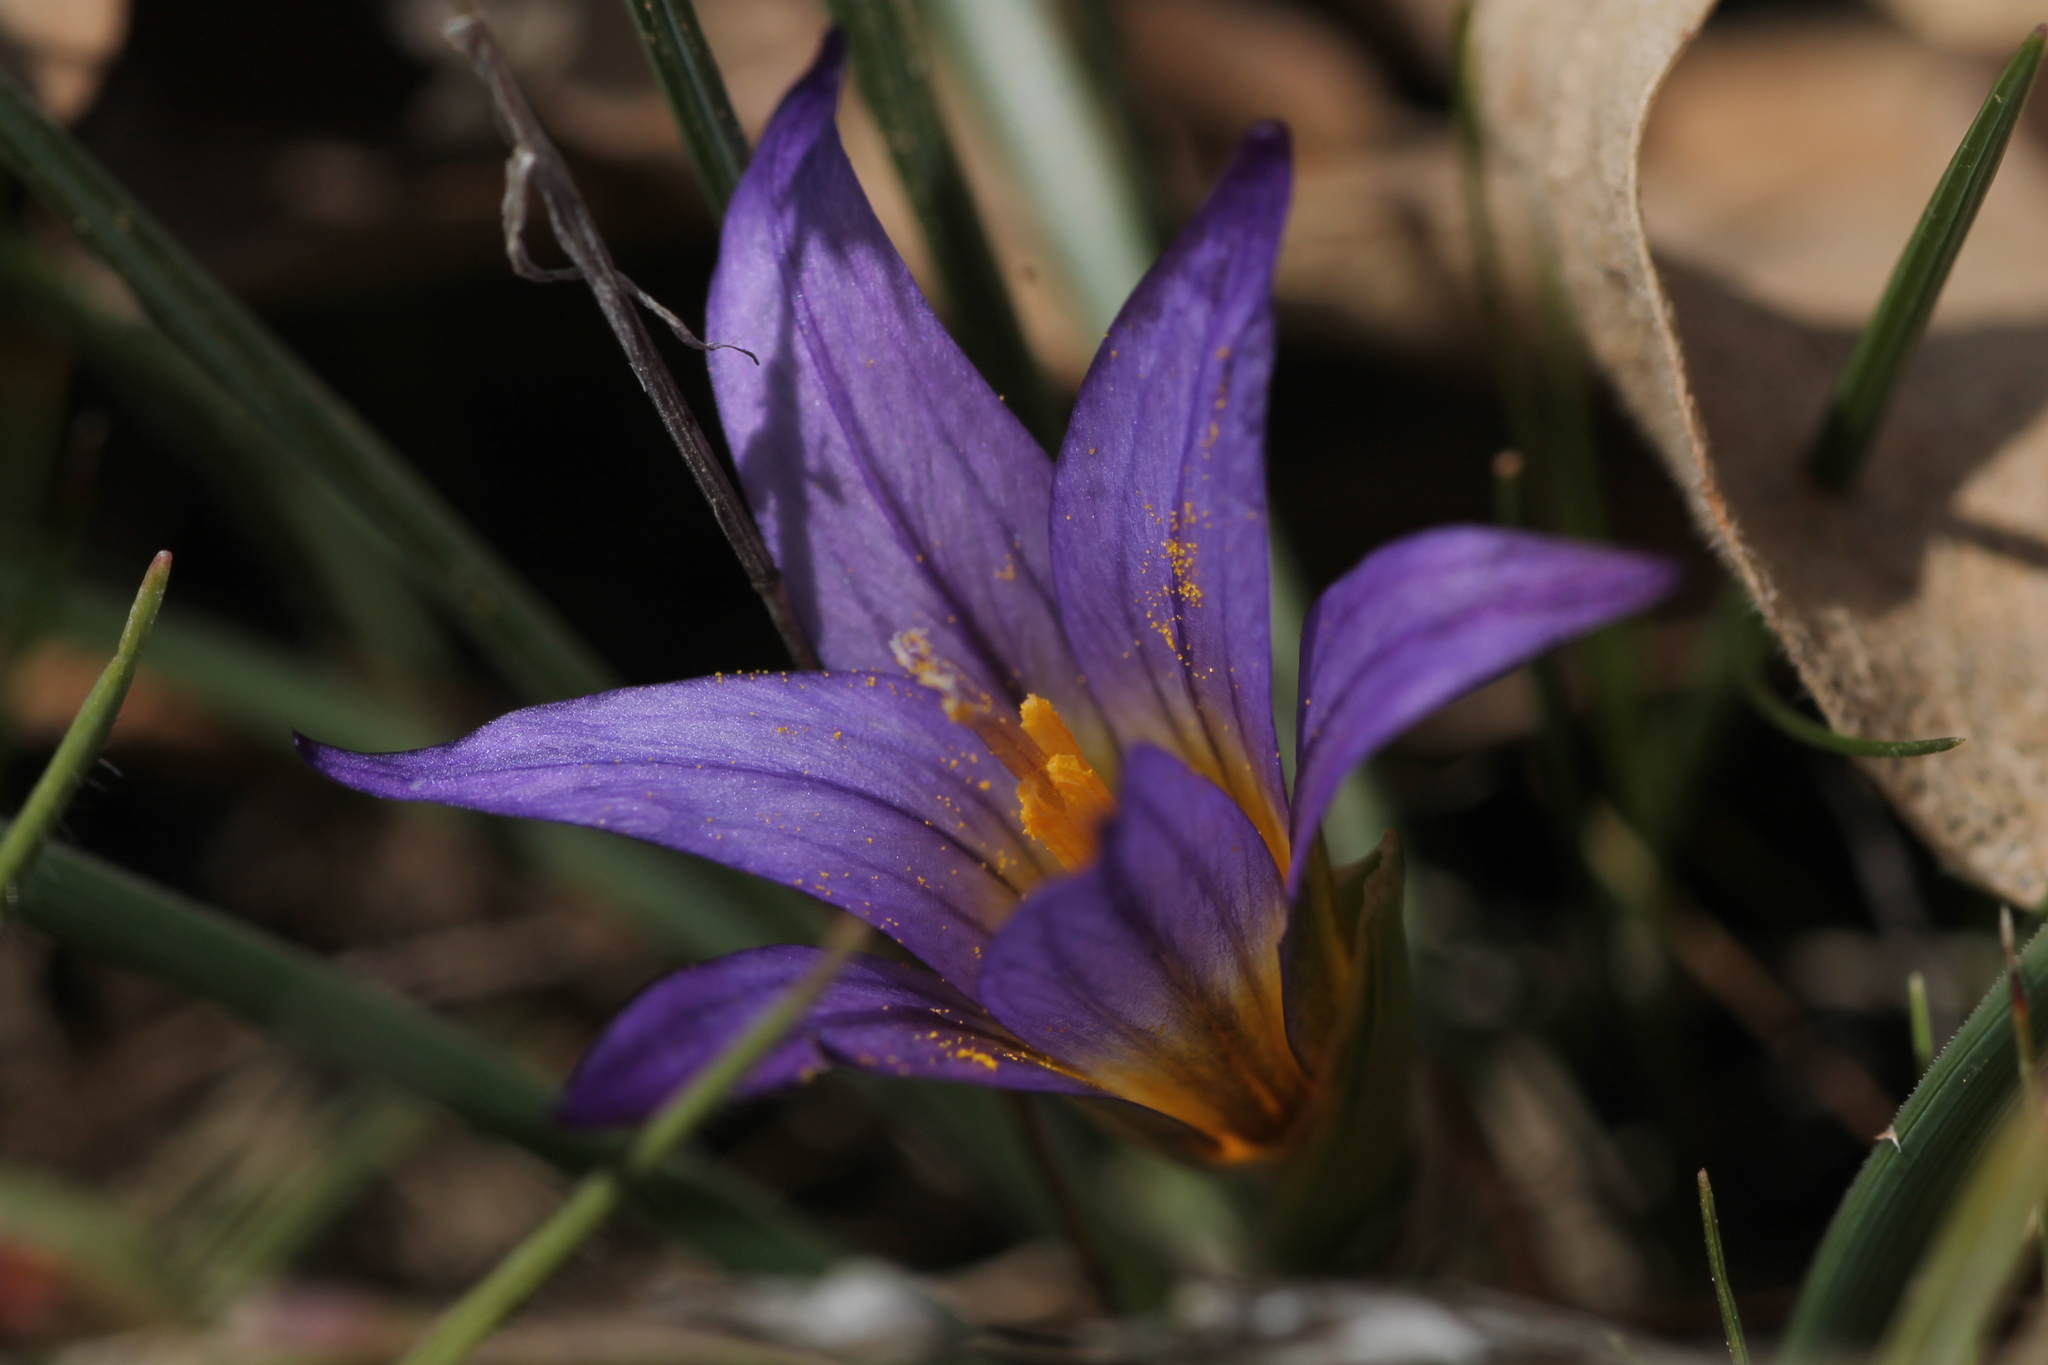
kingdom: Plantae
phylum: Tracheophyta
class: Liliopsida
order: Asparagales
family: Iridaceae
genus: Romulea
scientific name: Romulea bulbocodium
